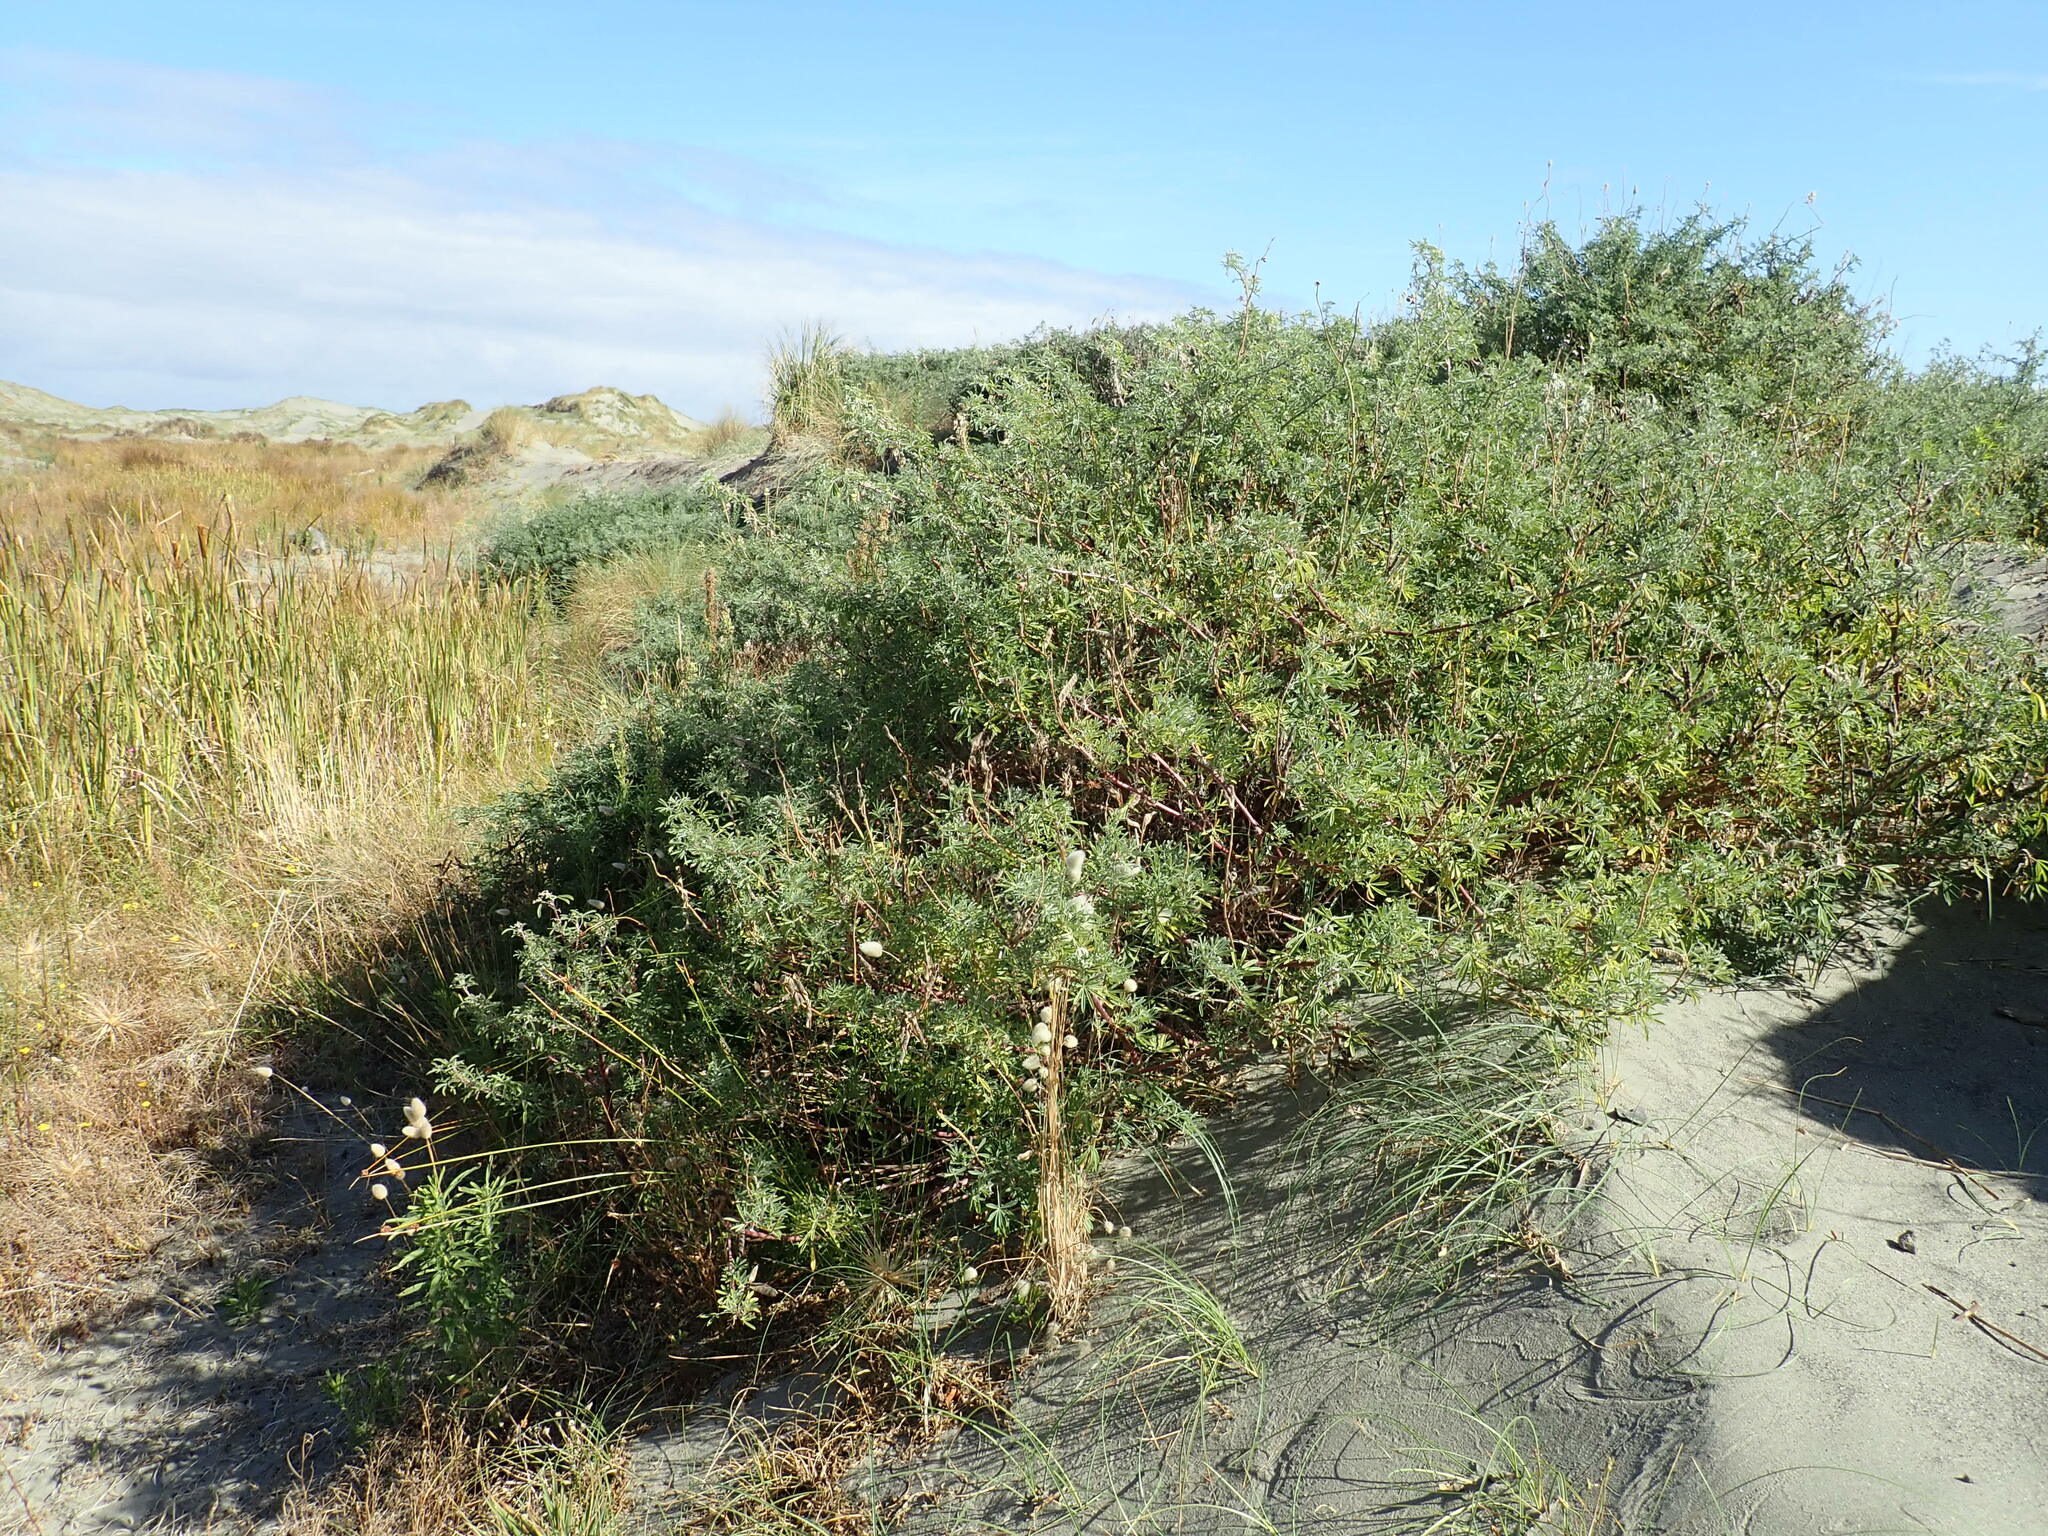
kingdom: Plantae
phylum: Tracheophyta
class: Magnoliopsida
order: Fabales
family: Fabaceae
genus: Lupinus
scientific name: Lupinus arboreus
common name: Yellow bush lupine
